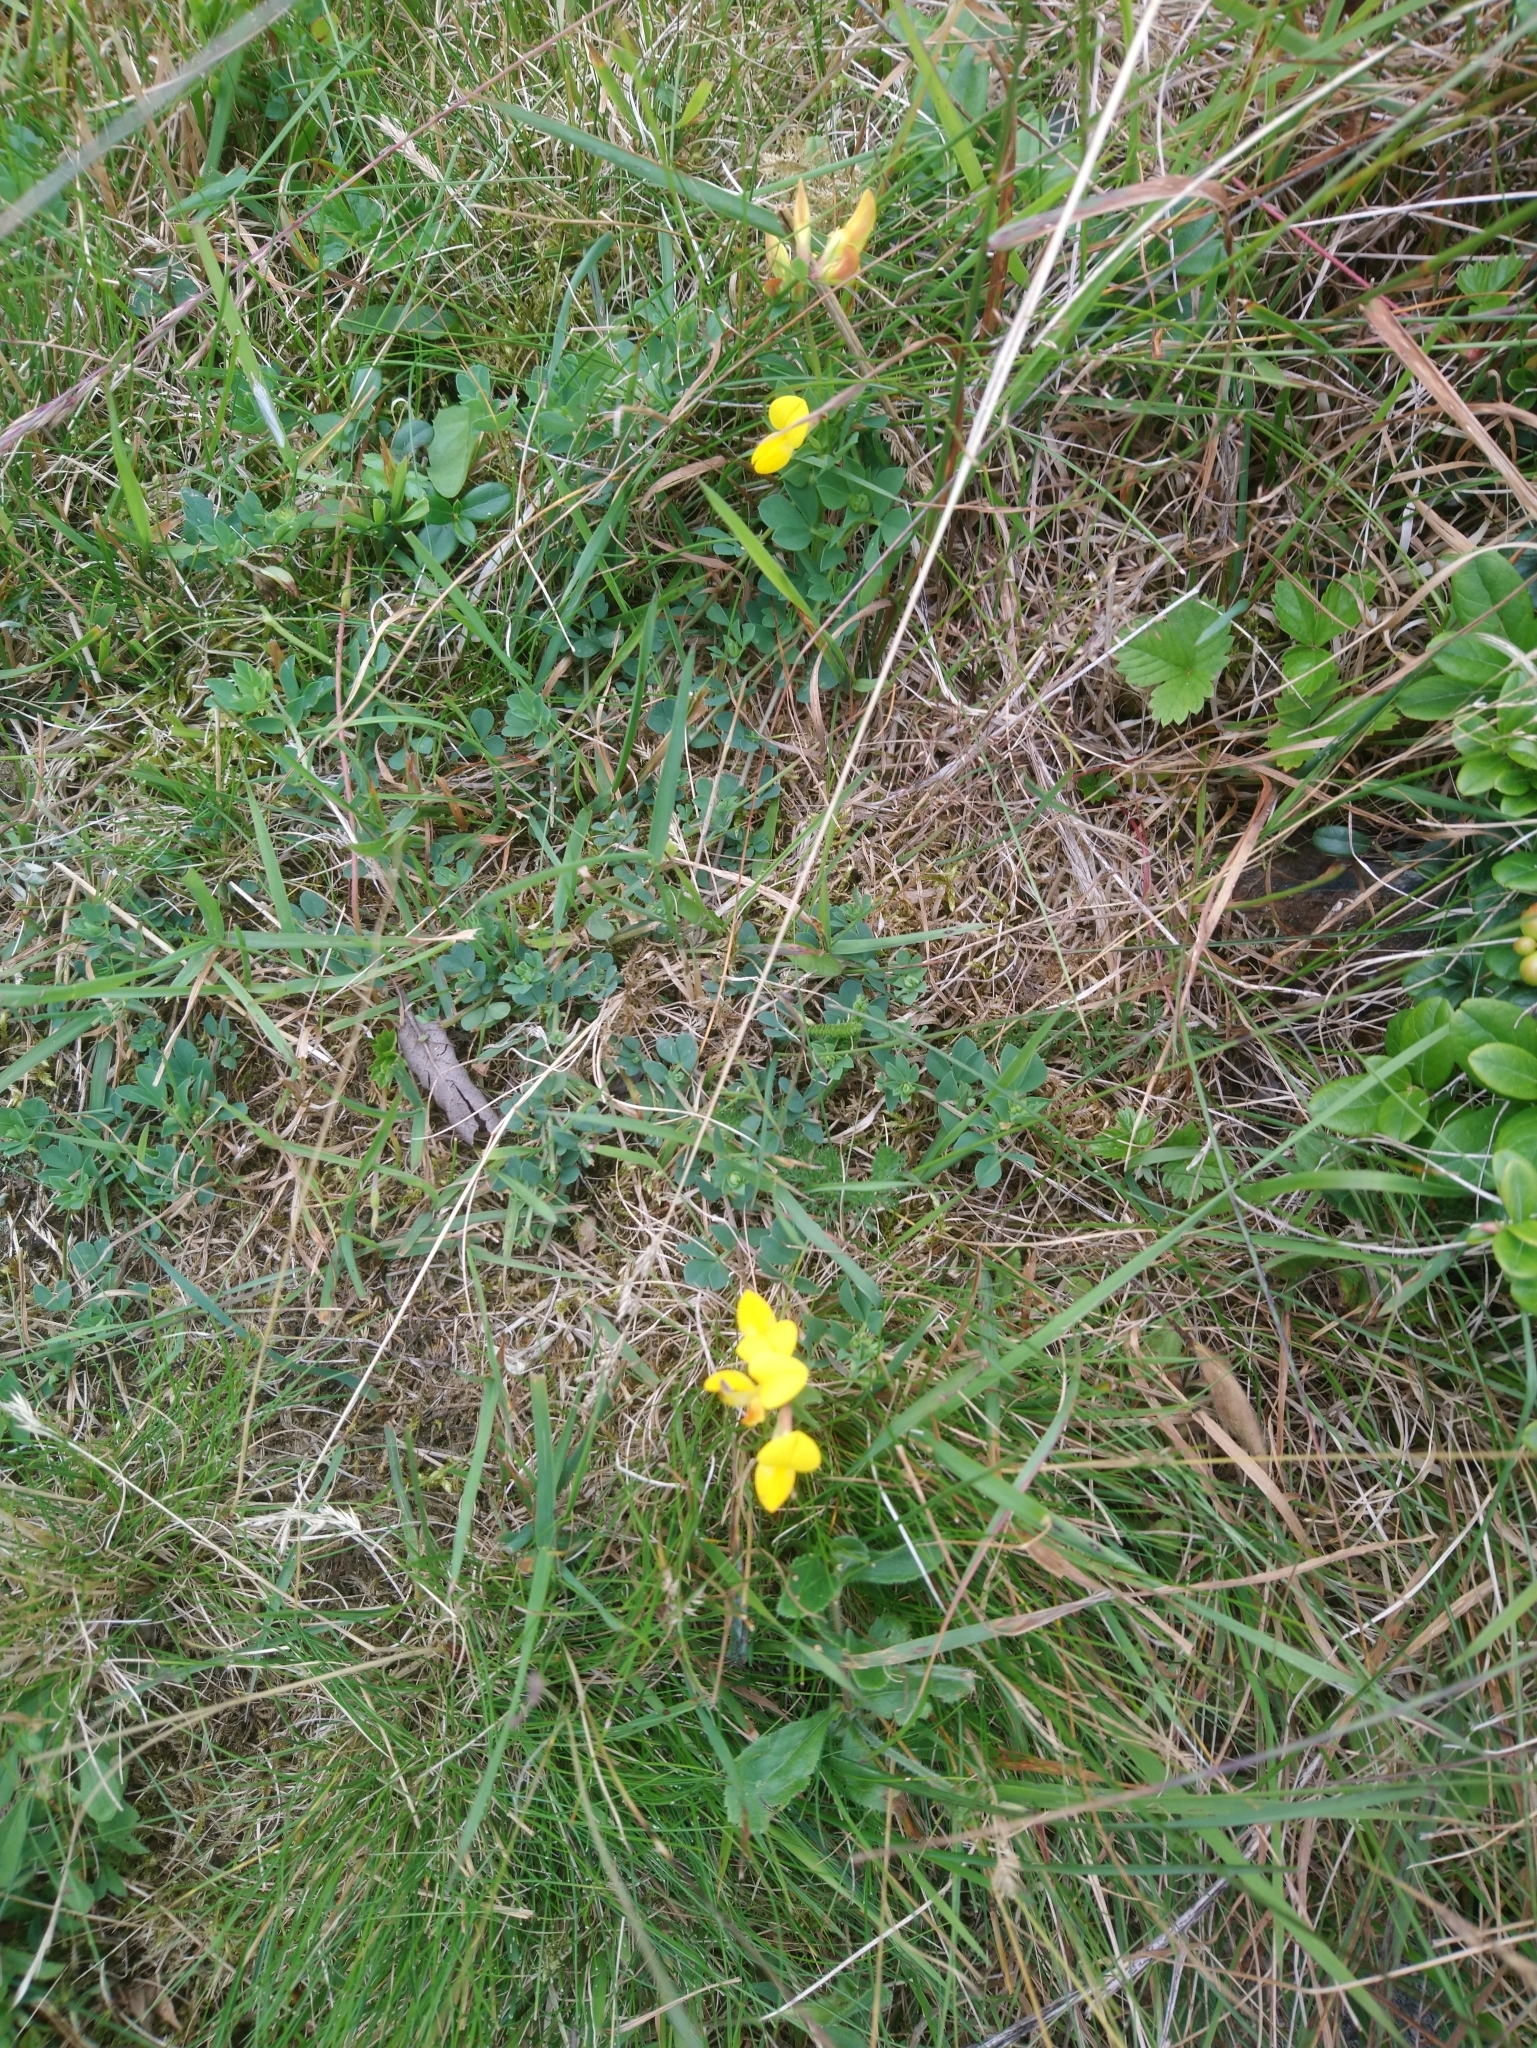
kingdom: Plantae
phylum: Tracheophyta
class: Magnoliopsida
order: Fabales
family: Fabaceae
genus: Lotus
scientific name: Lotus corniculatus
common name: Common bird's-foot-trefoil
